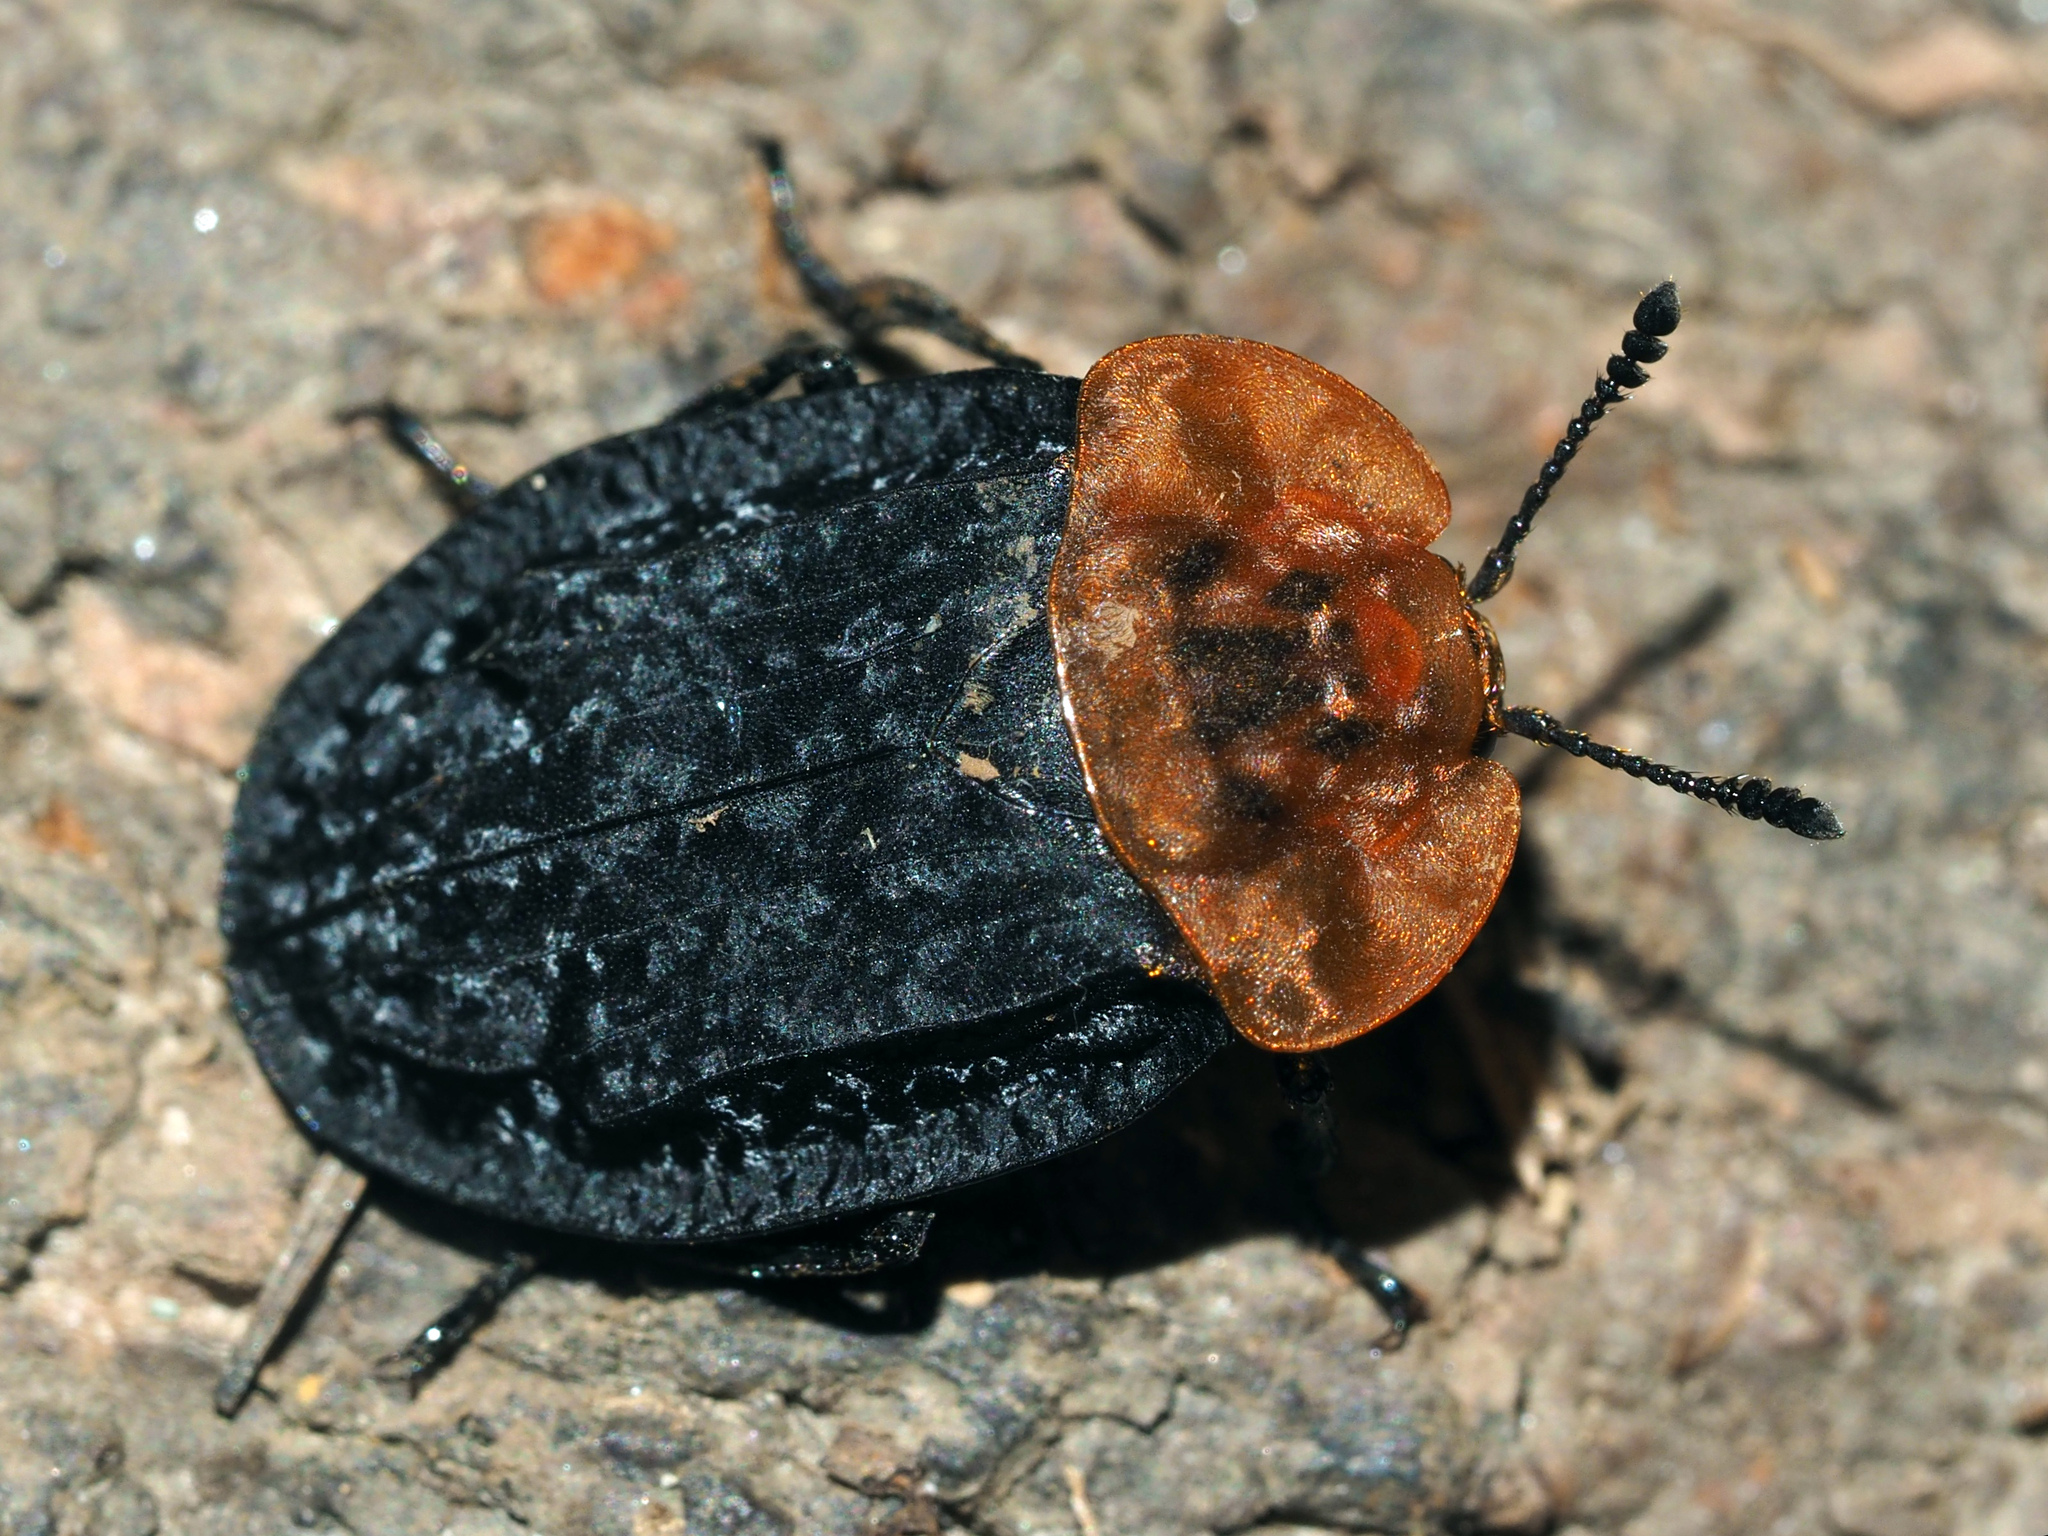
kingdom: Animalia
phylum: Arthropoda
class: Insecta
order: Coleoptera
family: Staphylinidae
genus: Oiceoptoma
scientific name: Oiceoptoma thoracicum
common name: Red-breasted carrion beetle
